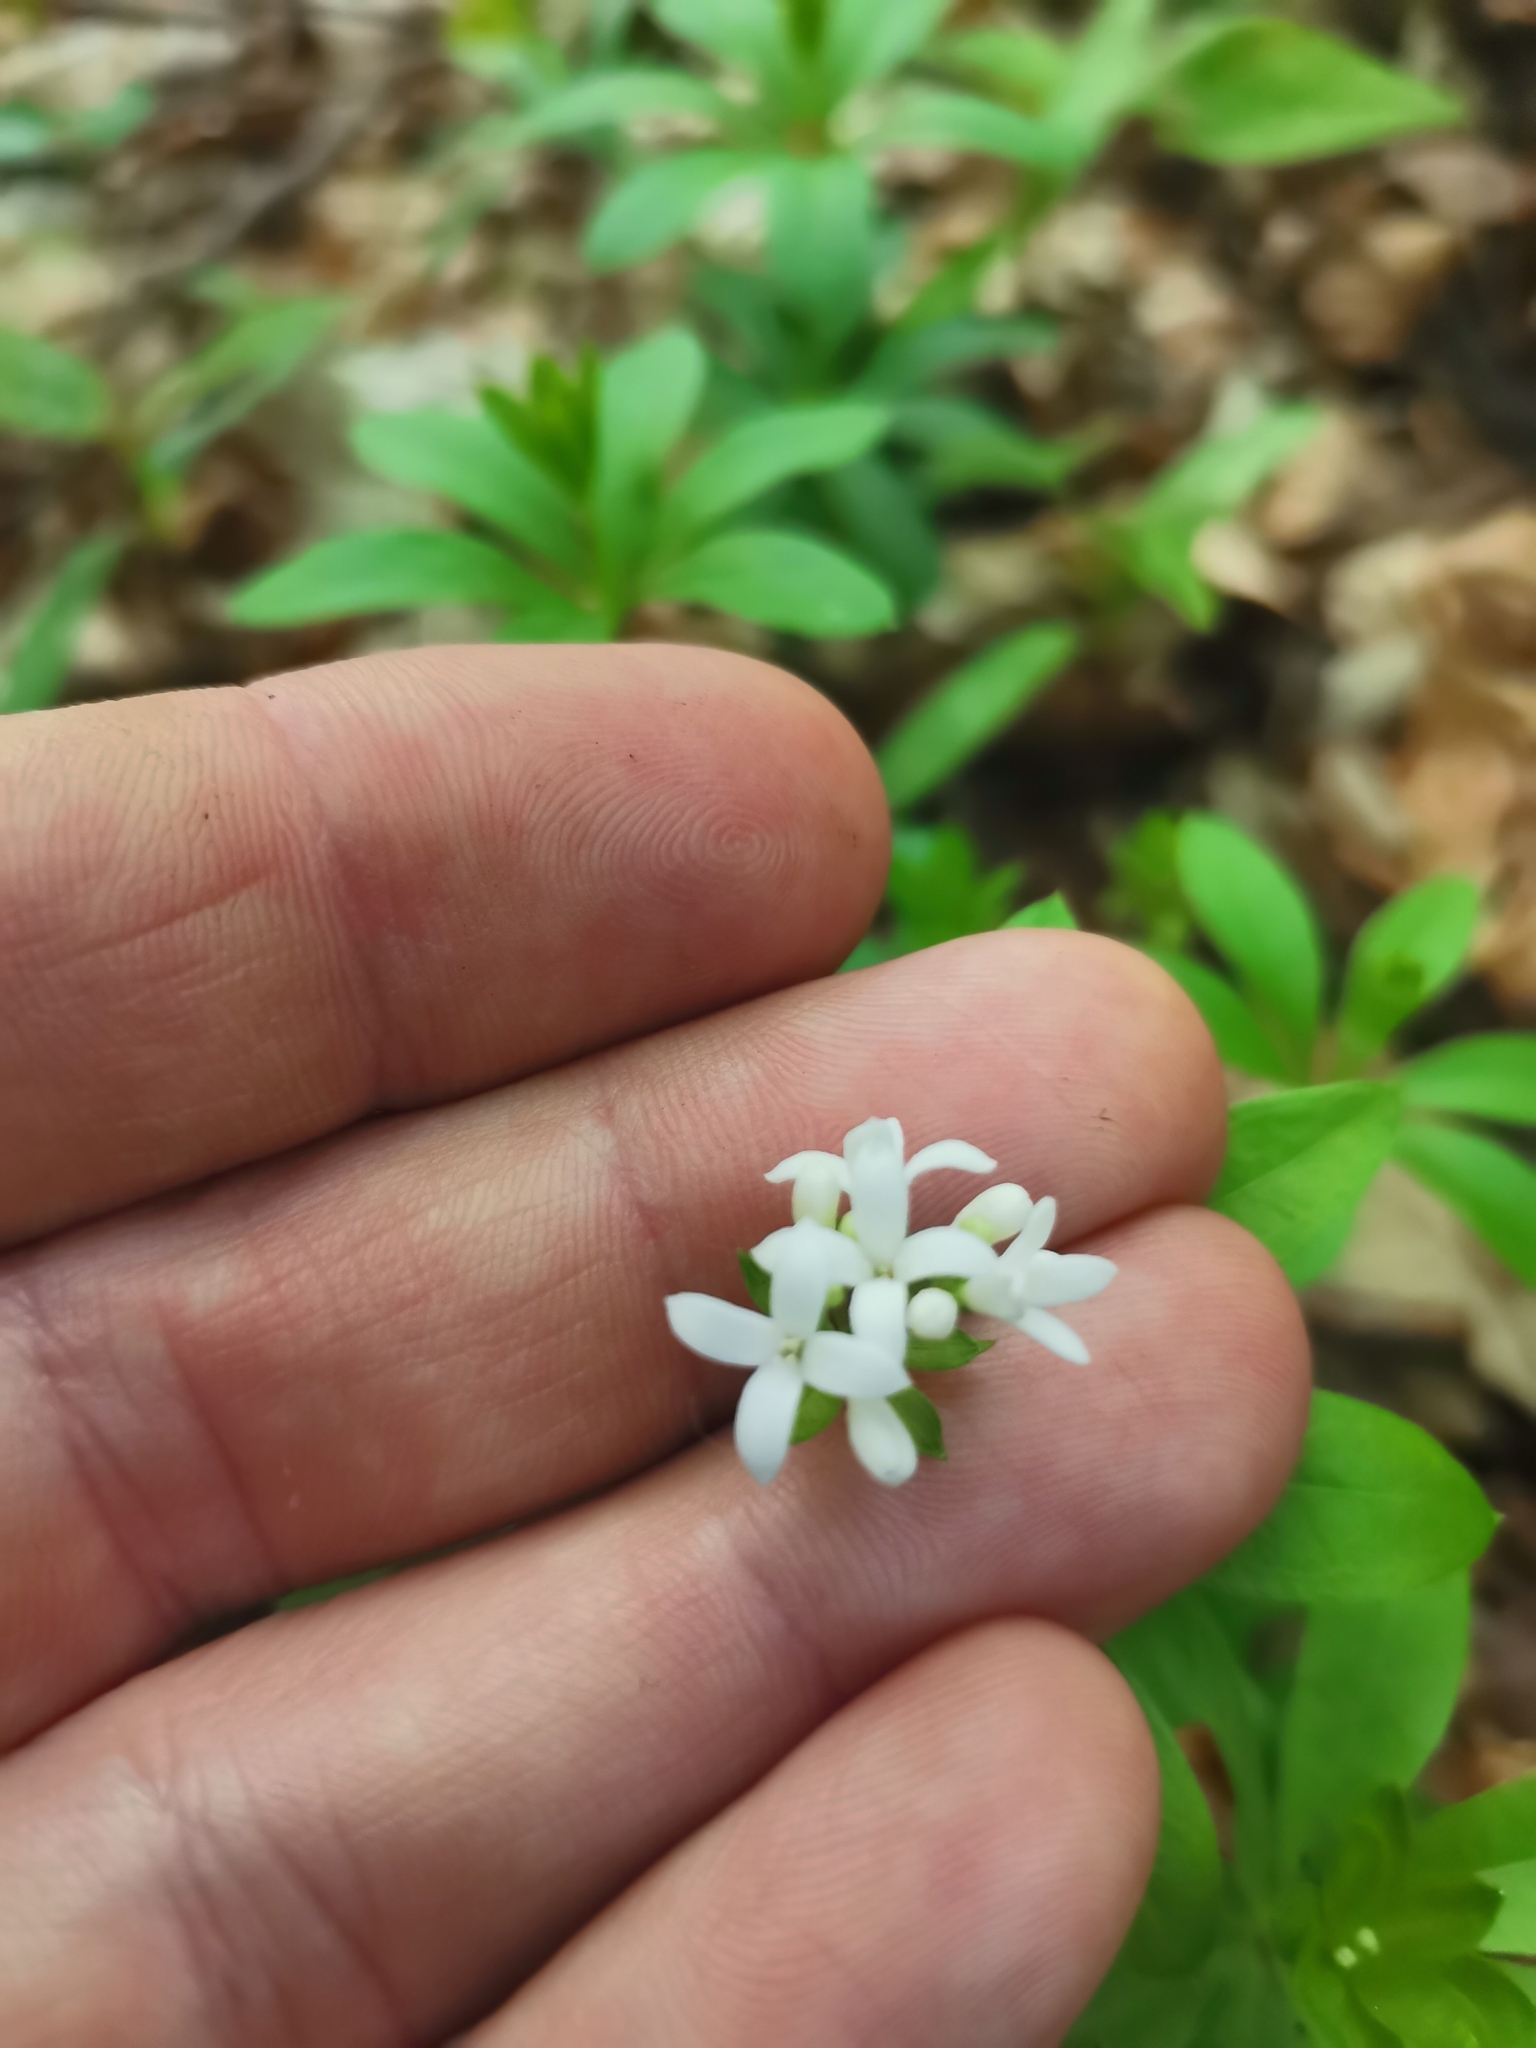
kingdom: Plantae
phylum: Tracheophyta
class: Magnoliopsida
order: Gentianales
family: Rubiaceae
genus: Galium
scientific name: Galium odoratum
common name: Sweet woodruff
